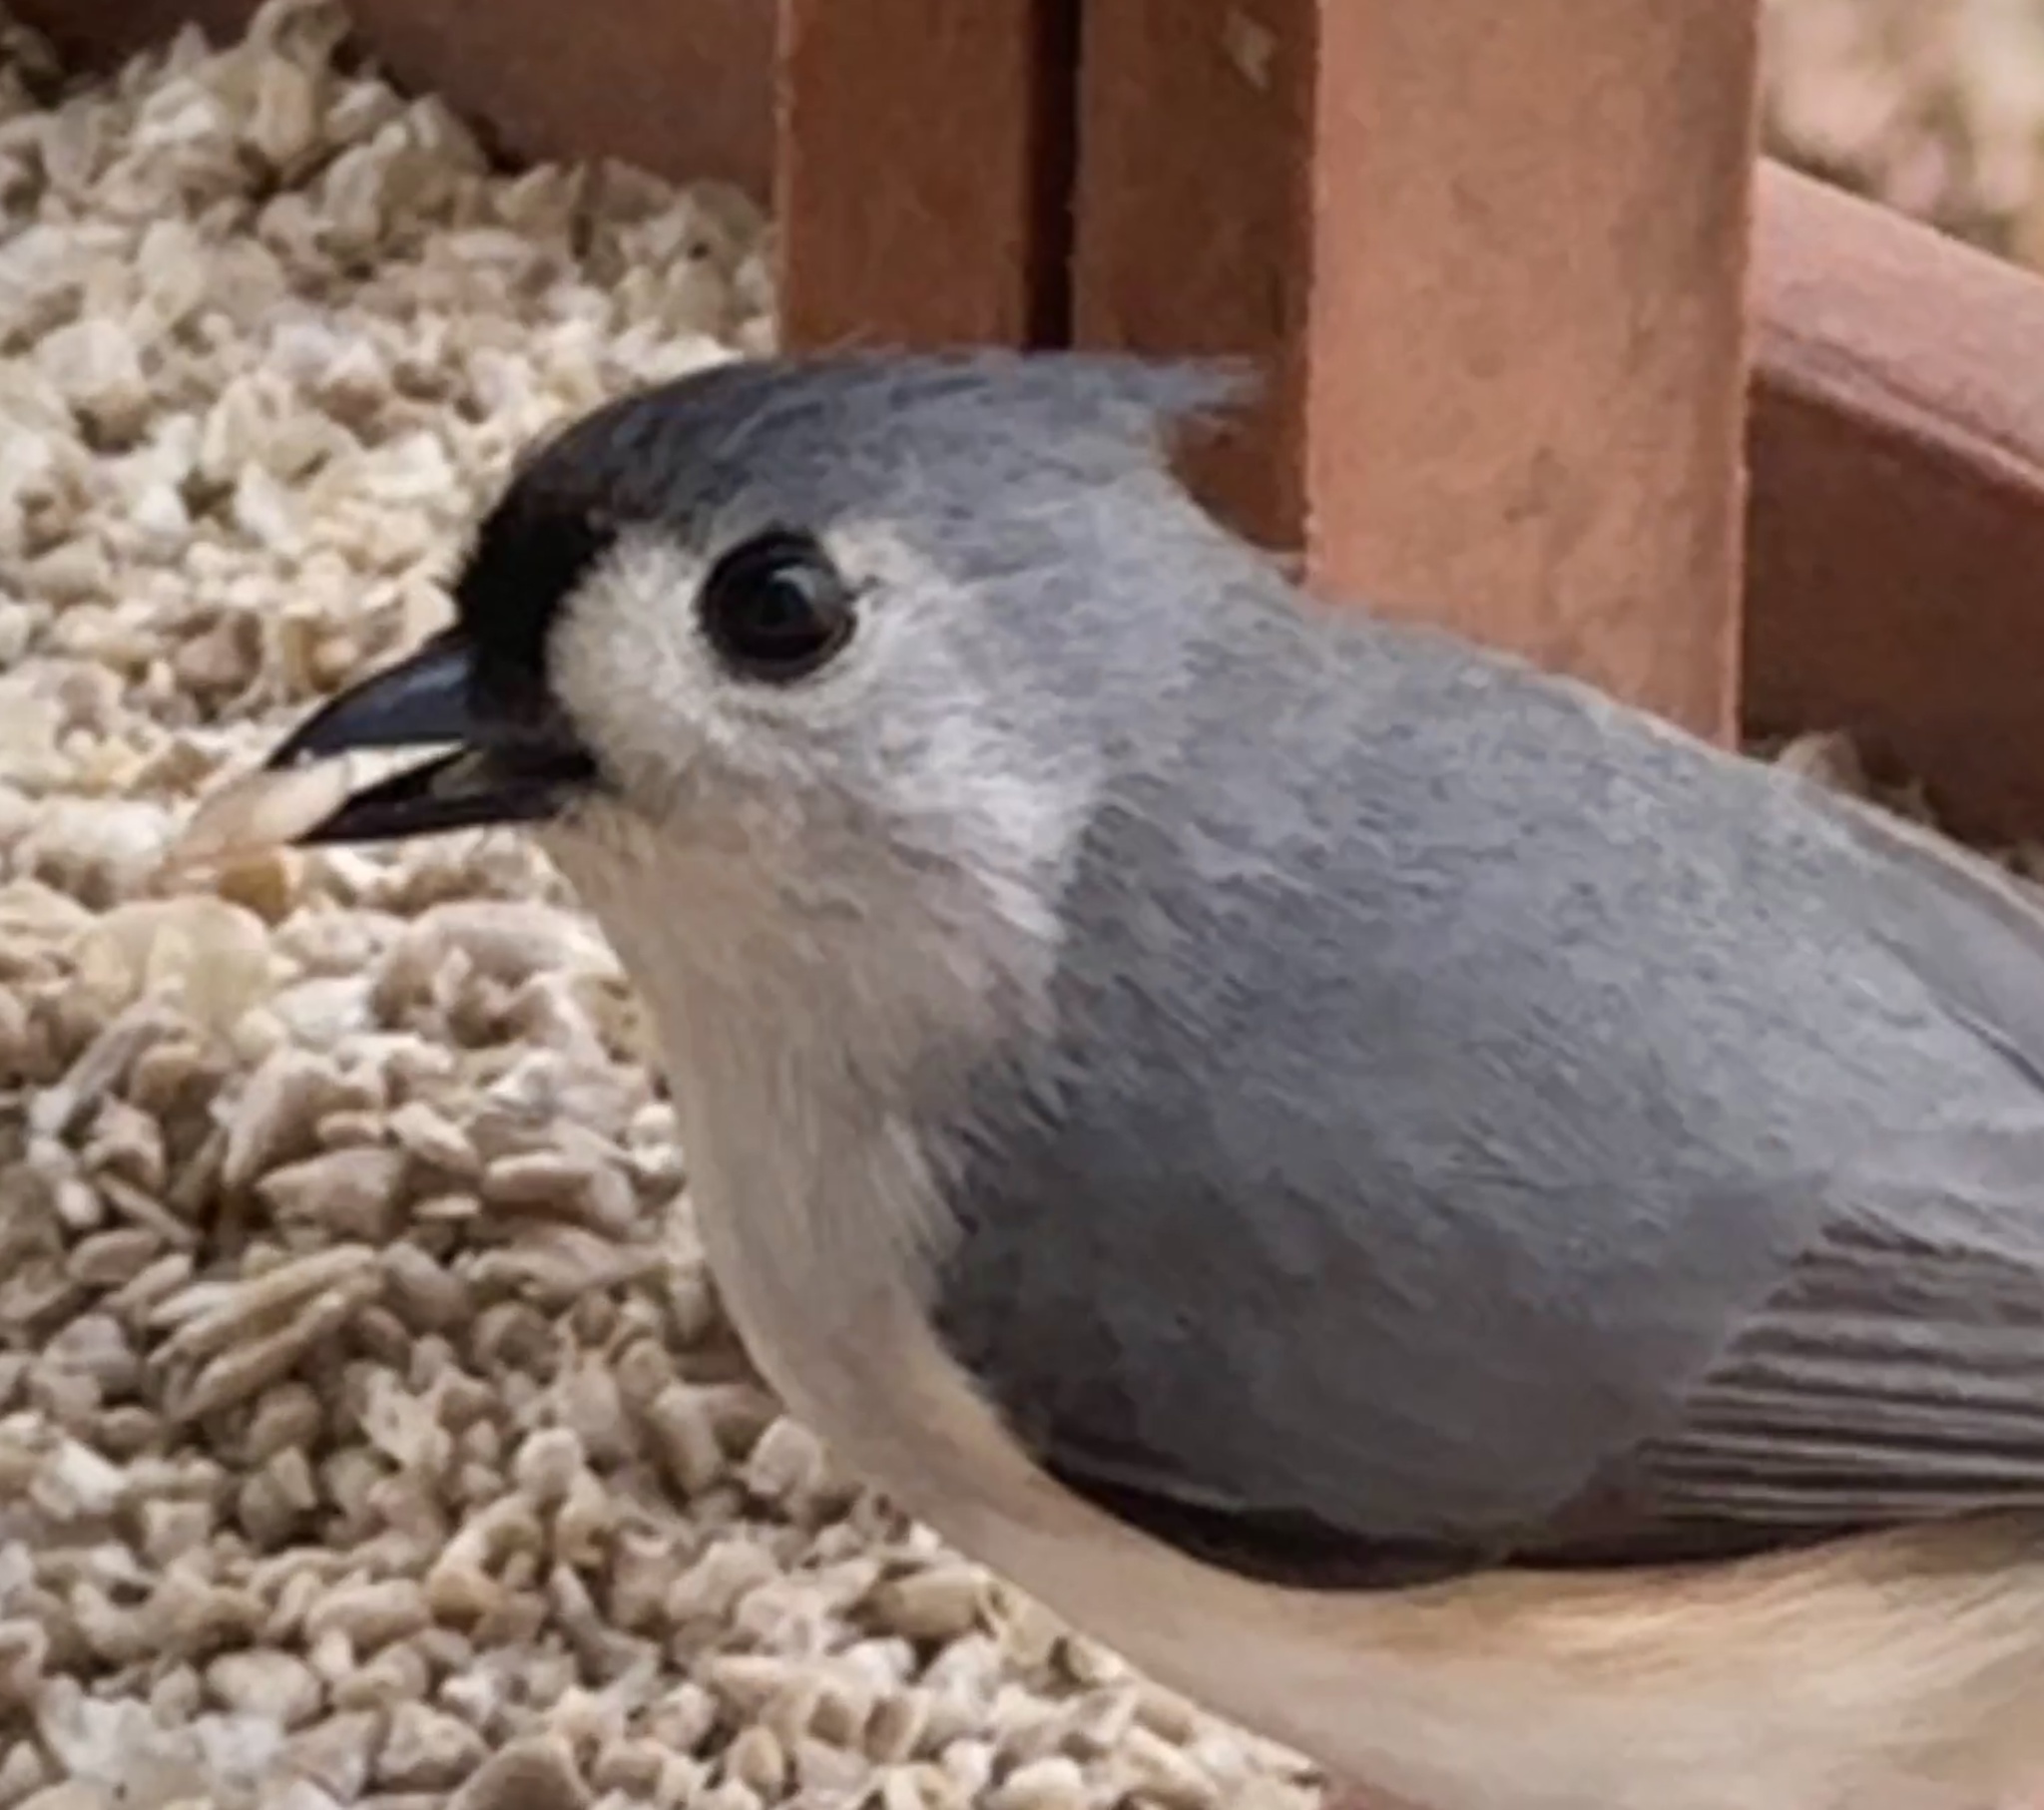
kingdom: Animalia
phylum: Chordata
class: Aves
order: Passeriformes
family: Paridae
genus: Baeolophus
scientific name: Baeolophus bicolor
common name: Tufted titmouse
